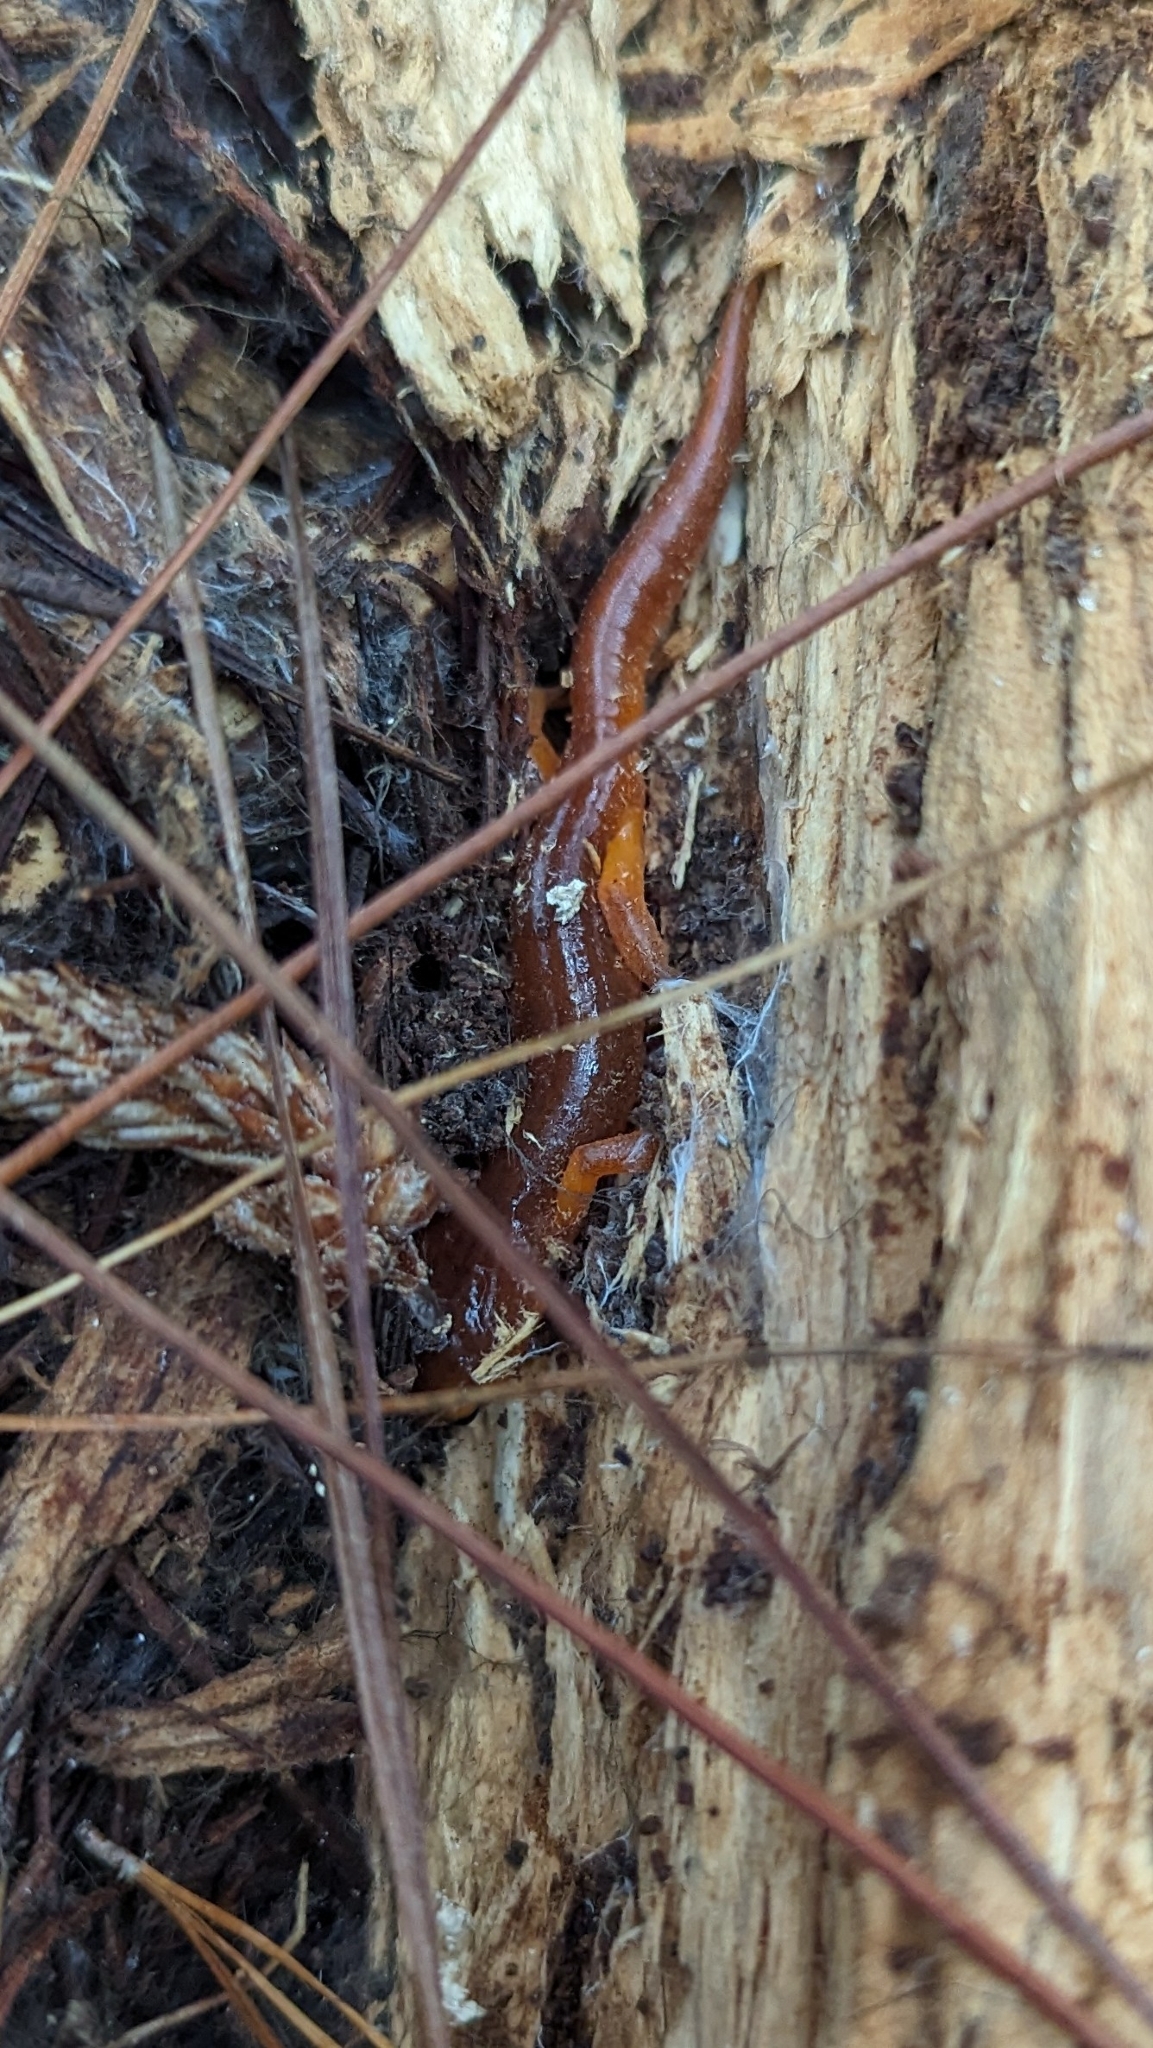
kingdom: Animalia
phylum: Chordata
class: Amphibia
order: Caudata
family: Plethodontidae
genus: Ensatina
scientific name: Ensatina eschscholtzii
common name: Ensatina
